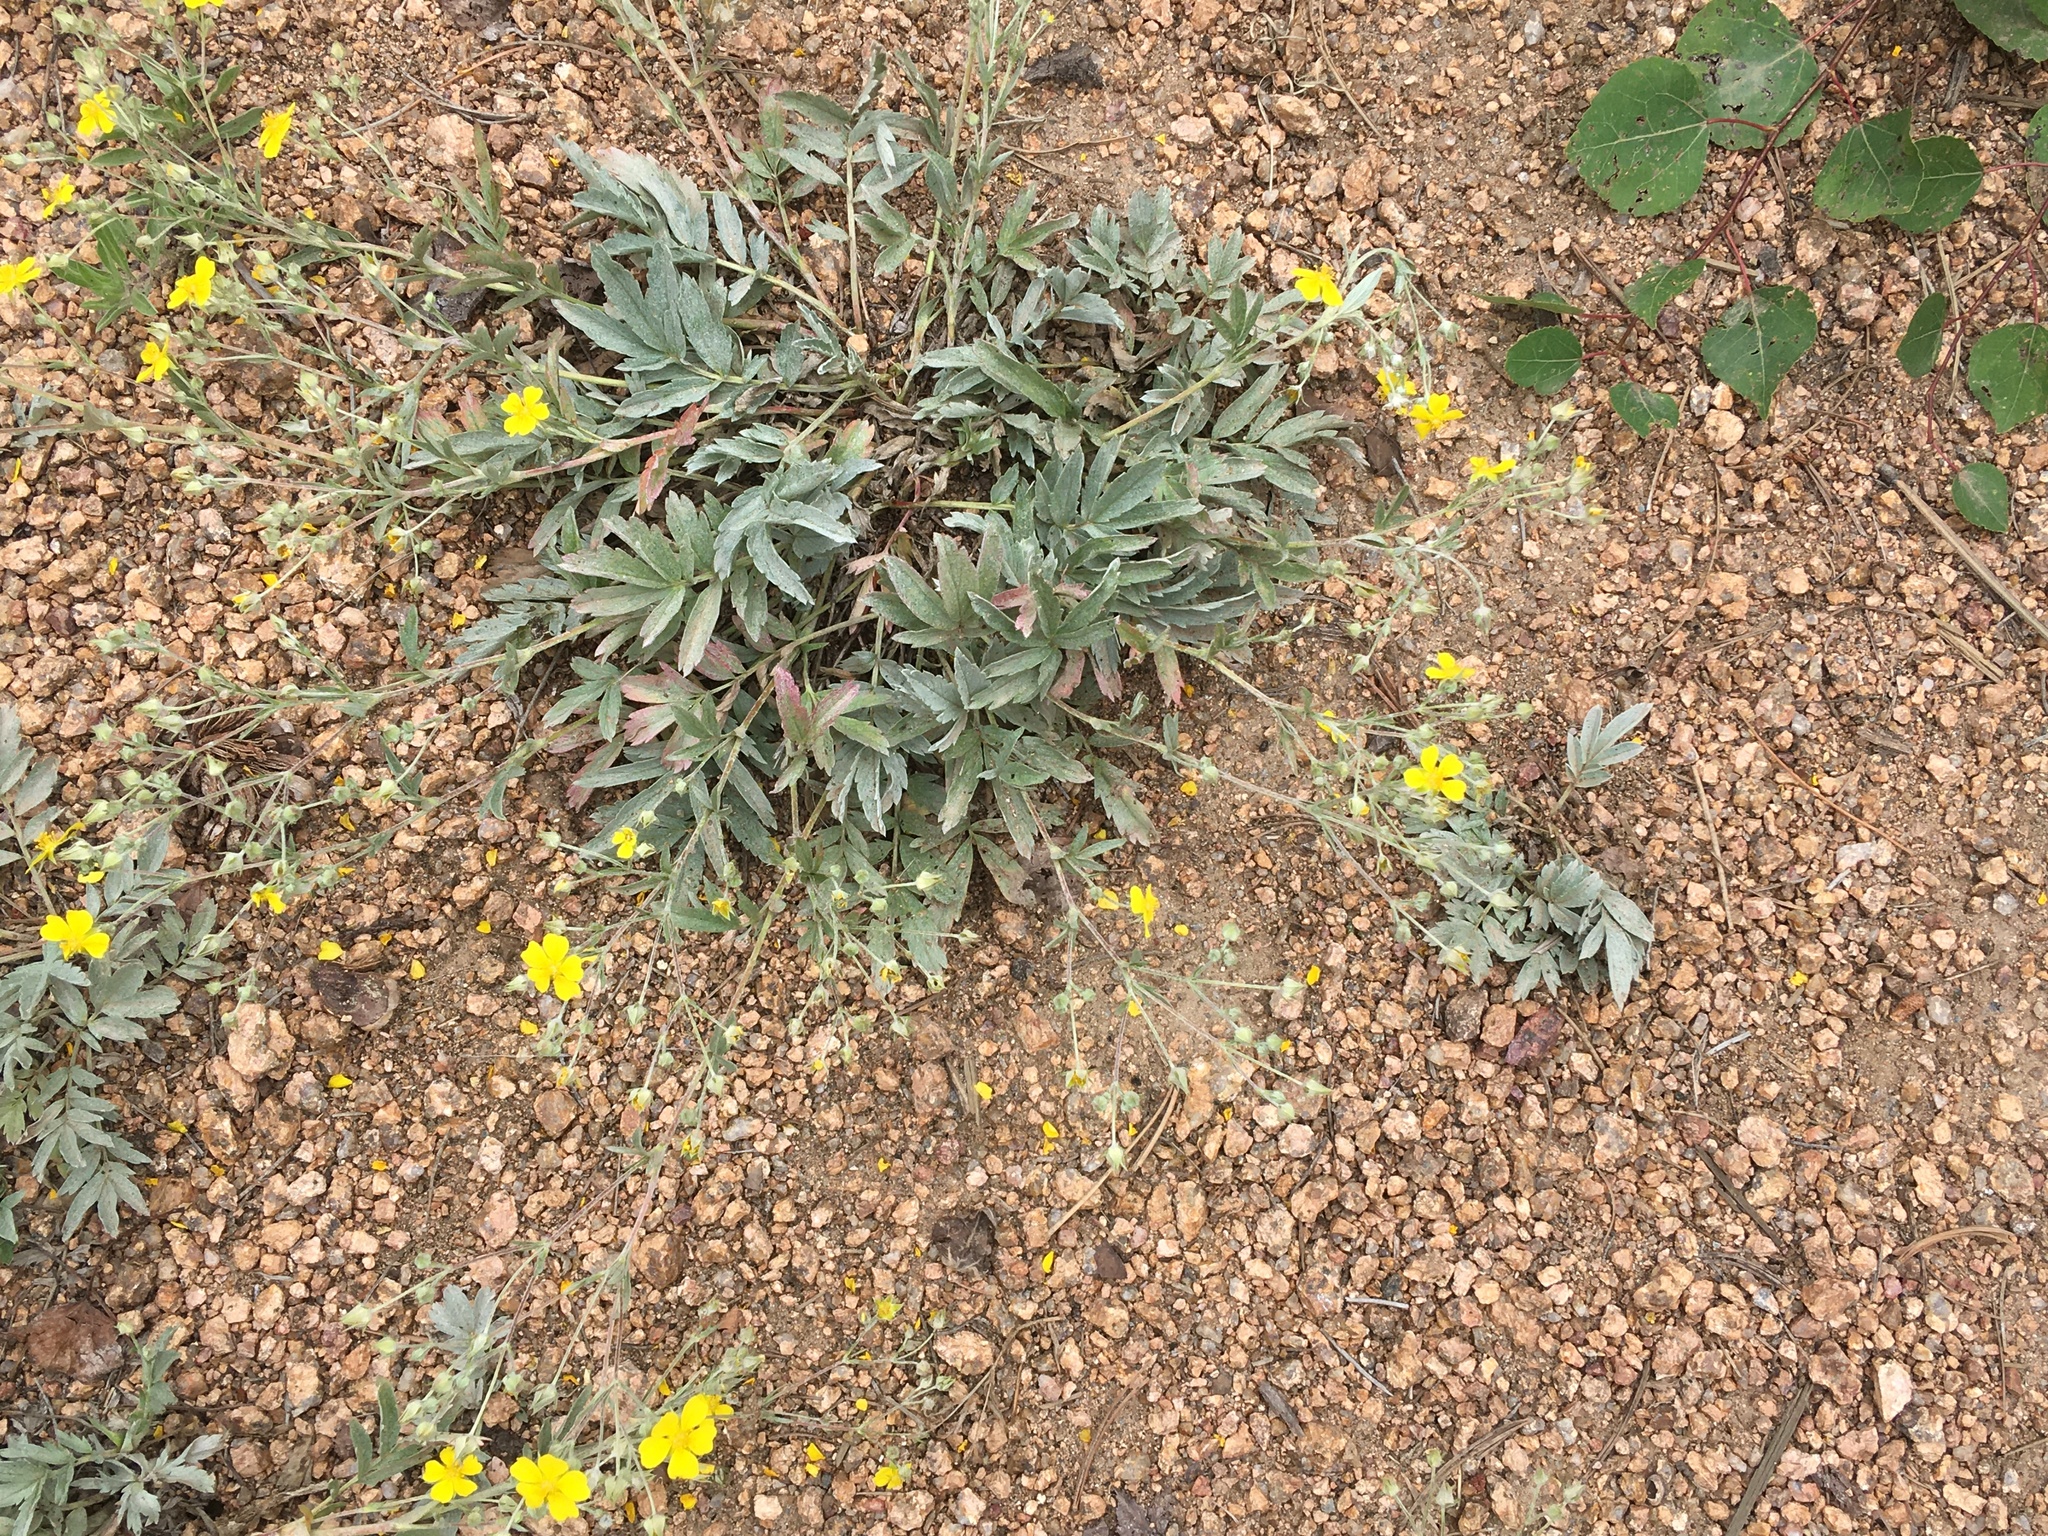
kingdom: Plantae
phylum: Tracheophyta
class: Magnoliopsida
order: Rosales
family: Rosaceae
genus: Potentilla
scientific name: Potentilla hippiana
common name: Woolly cinquefoil
